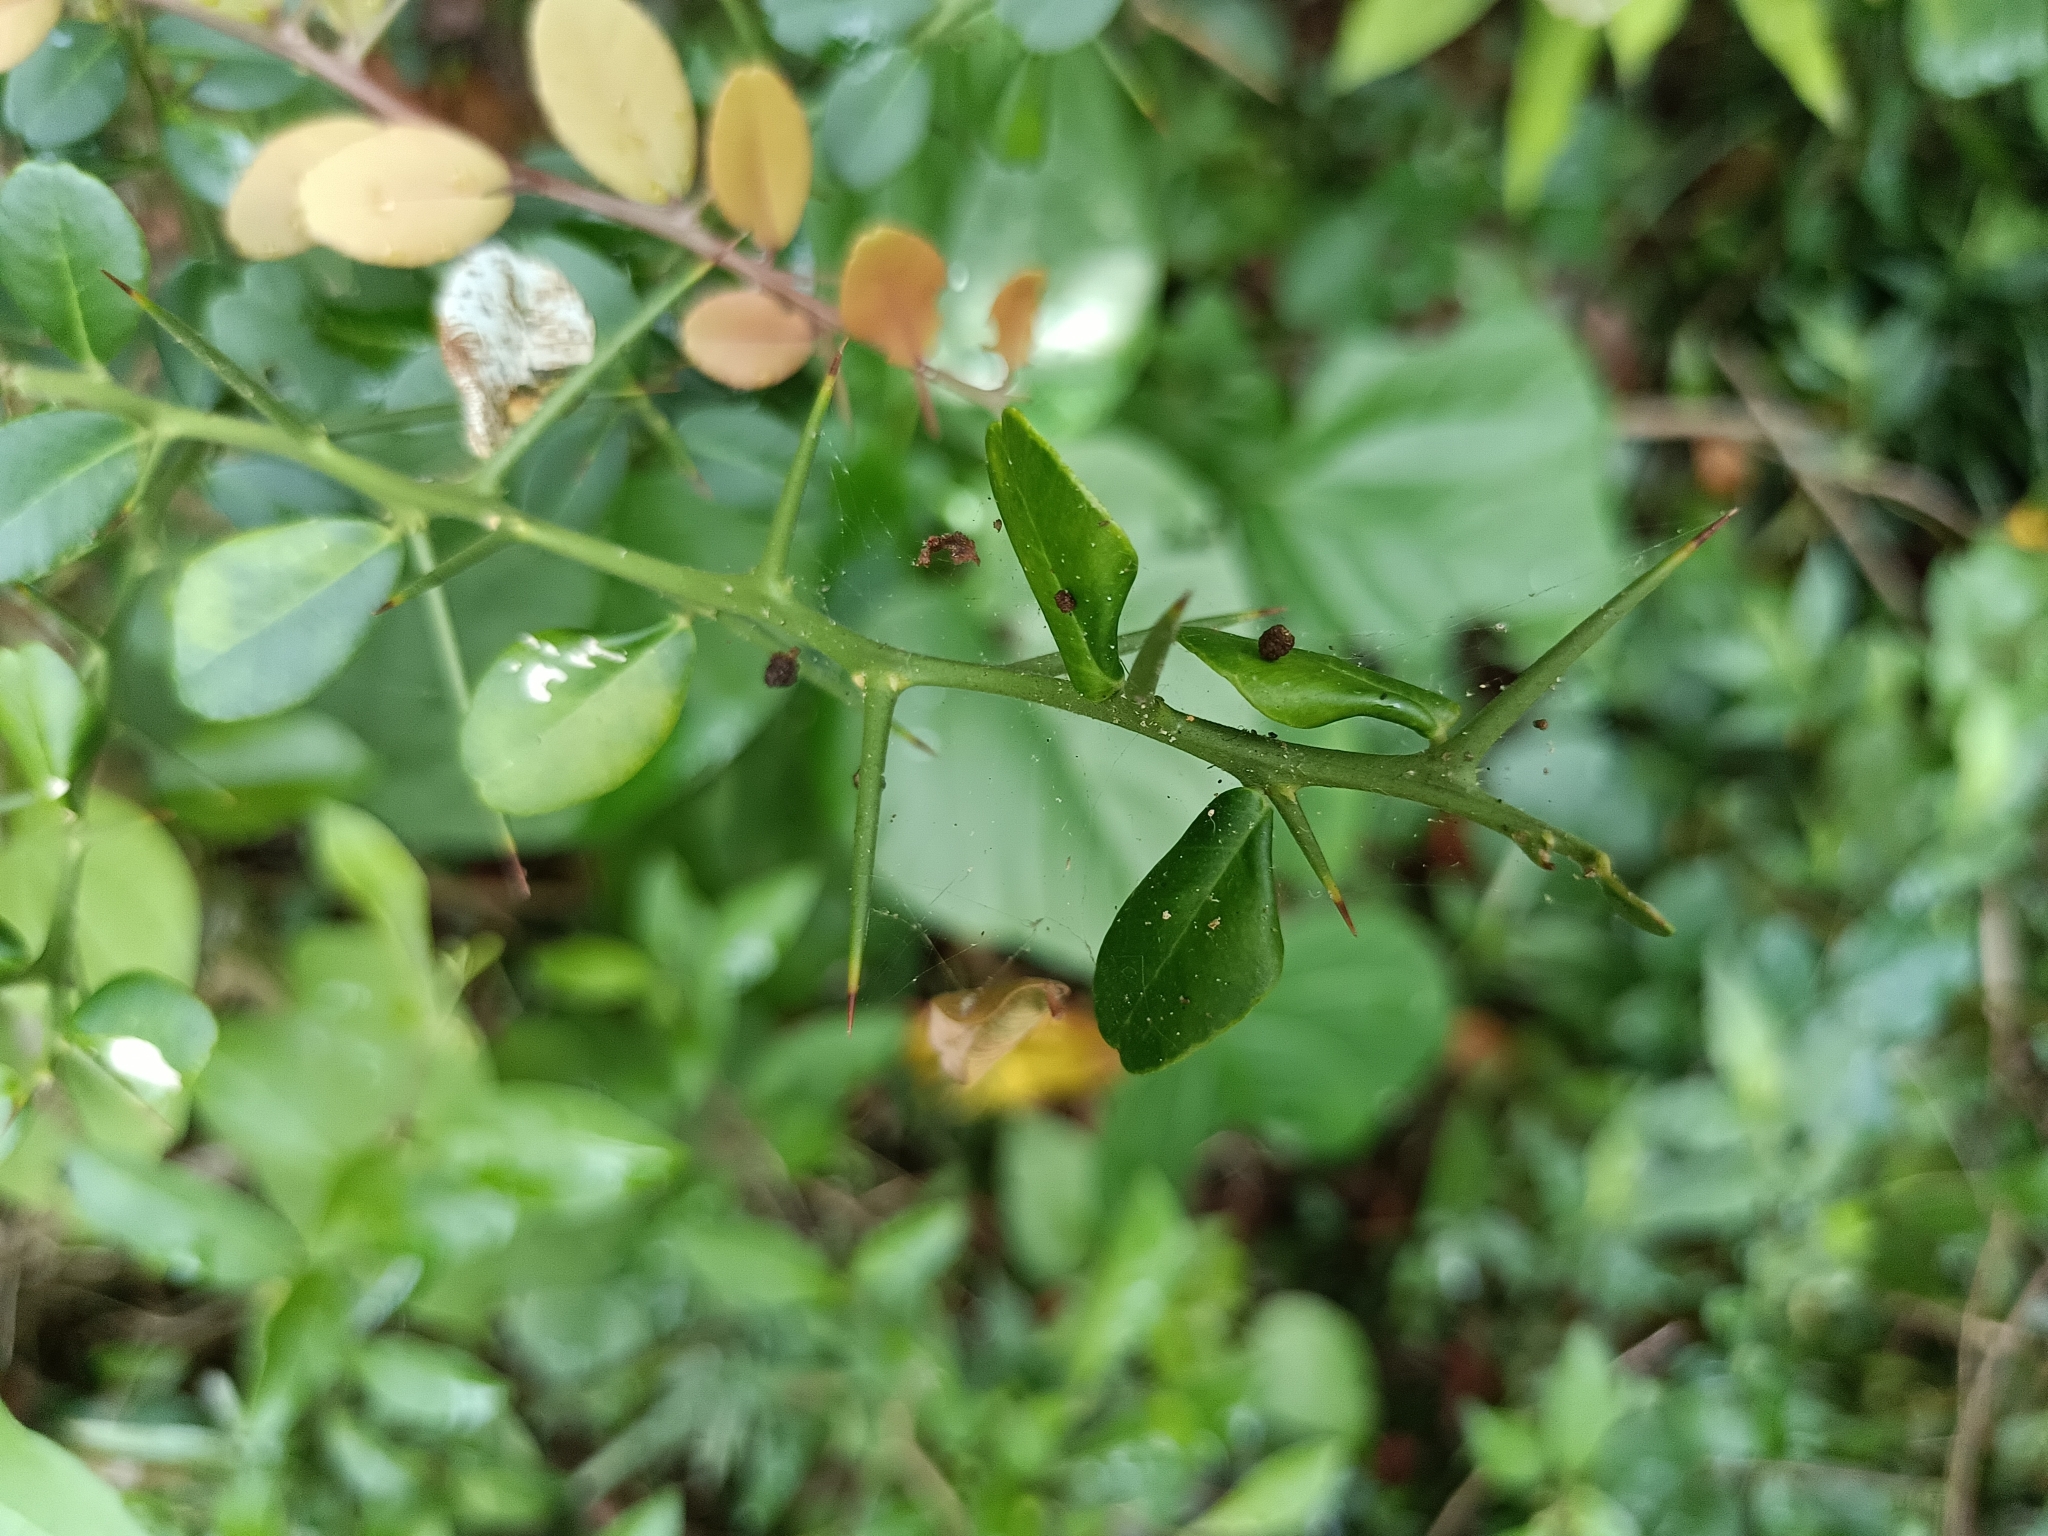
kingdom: Plantae
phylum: Tracheophyta
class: Magnoliopsida
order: Sapindales
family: Rutaceae
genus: Atalantia
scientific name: Atalantia buxifolia
